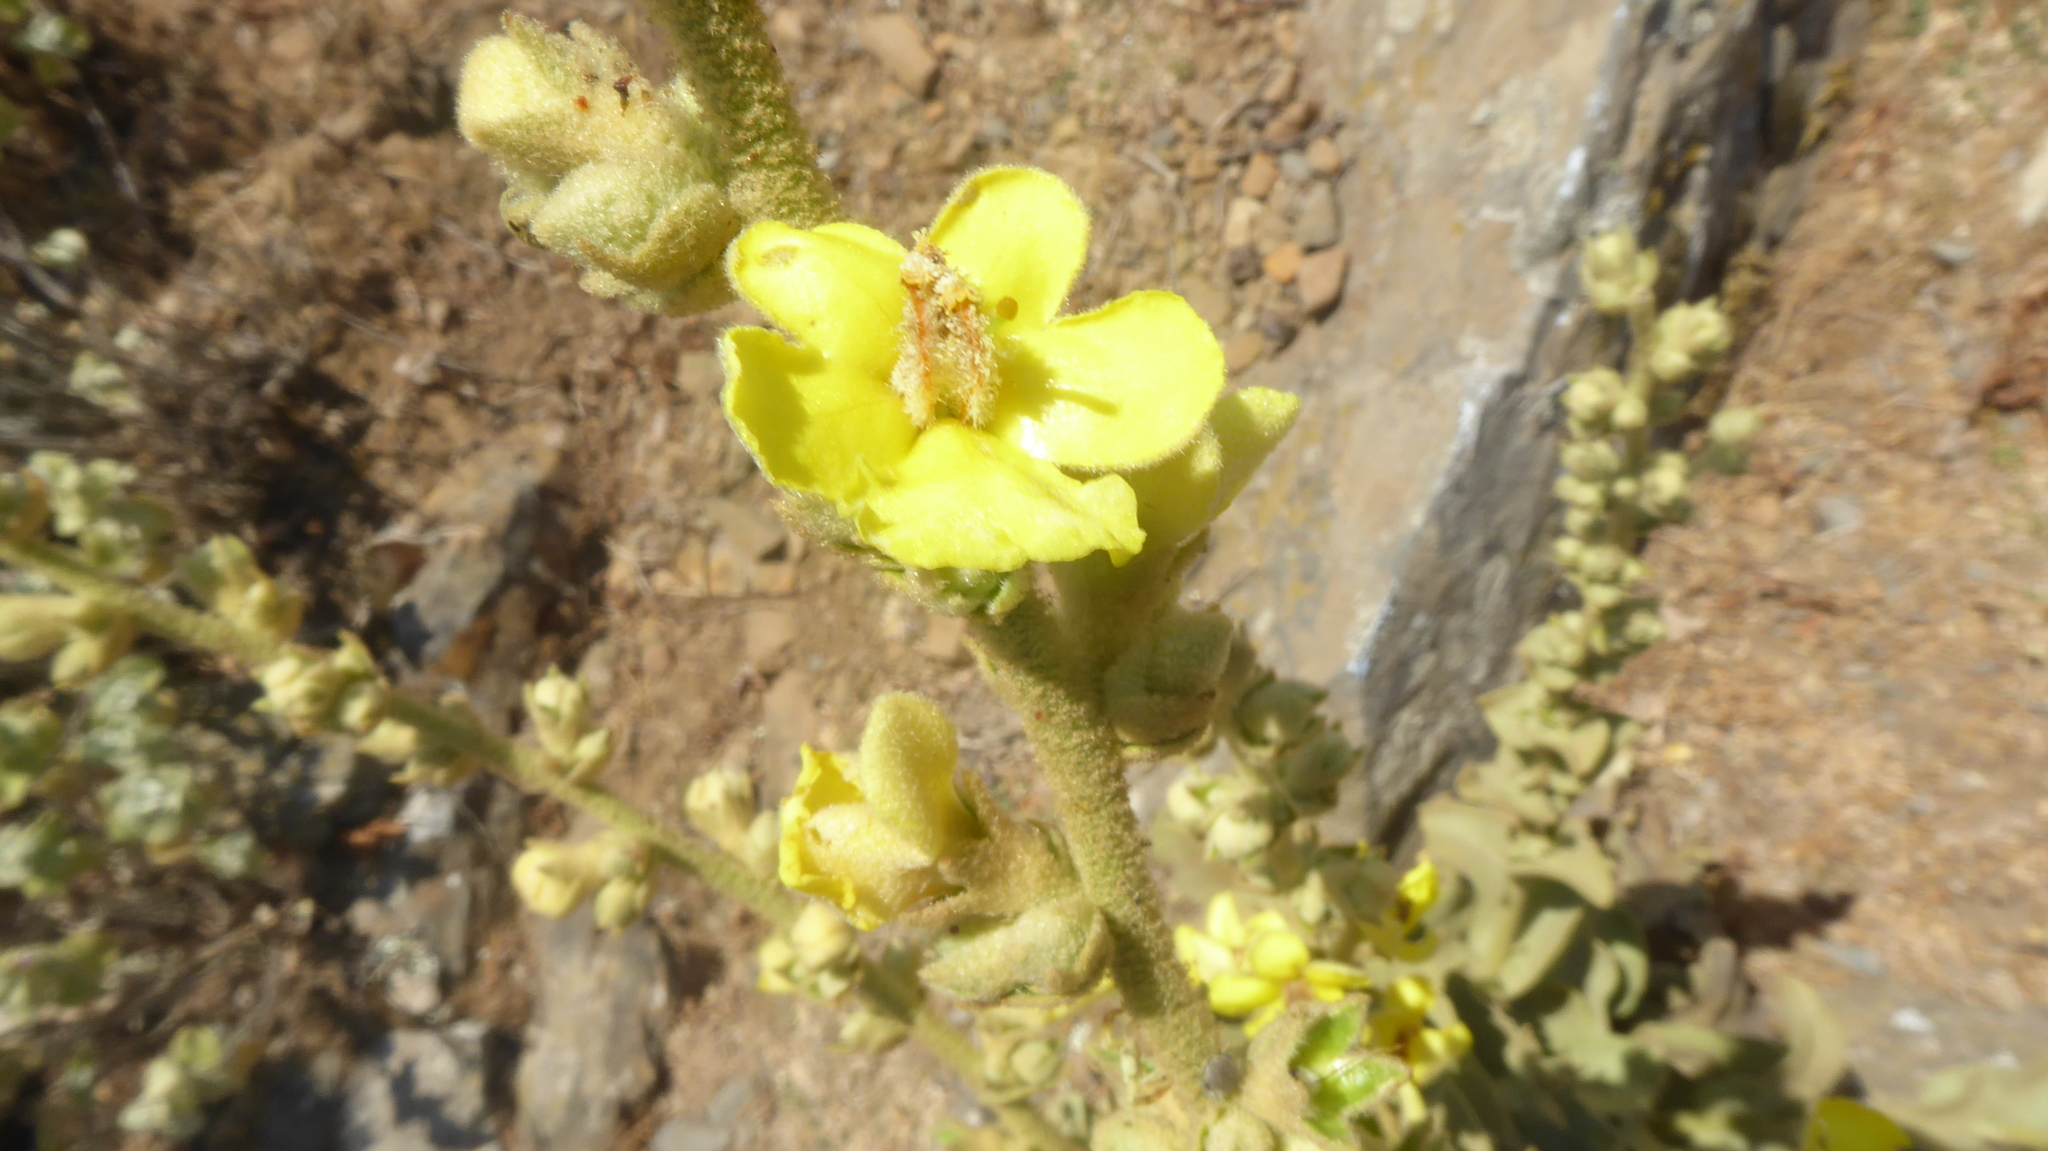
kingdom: Plantae
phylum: Tracheophyta
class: Magnoliopsida
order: Lamiales
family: Scrophulariaceae
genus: Verbascum
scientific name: Verbascum undulatum
